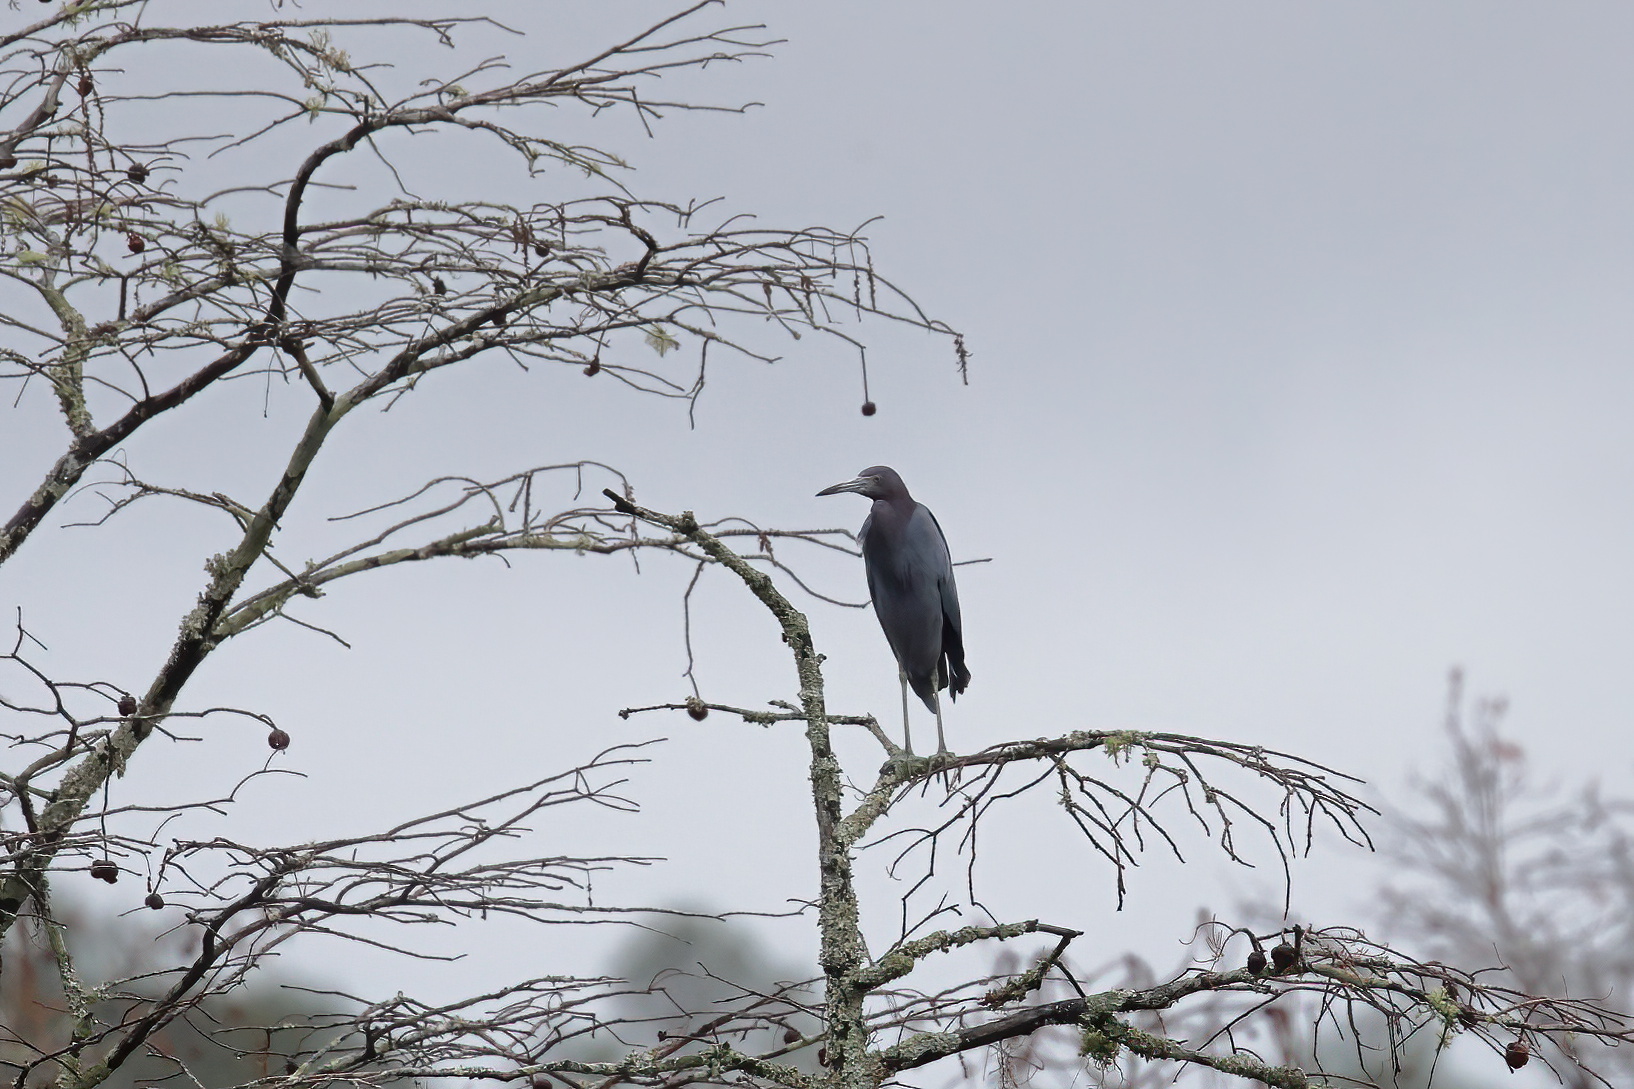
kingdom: Animalia
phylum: Chordata
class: Aves
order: Pelecaniformes
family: Ardeidae
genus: Egretta
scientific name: Egretta caerulea
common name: Little blue heron
